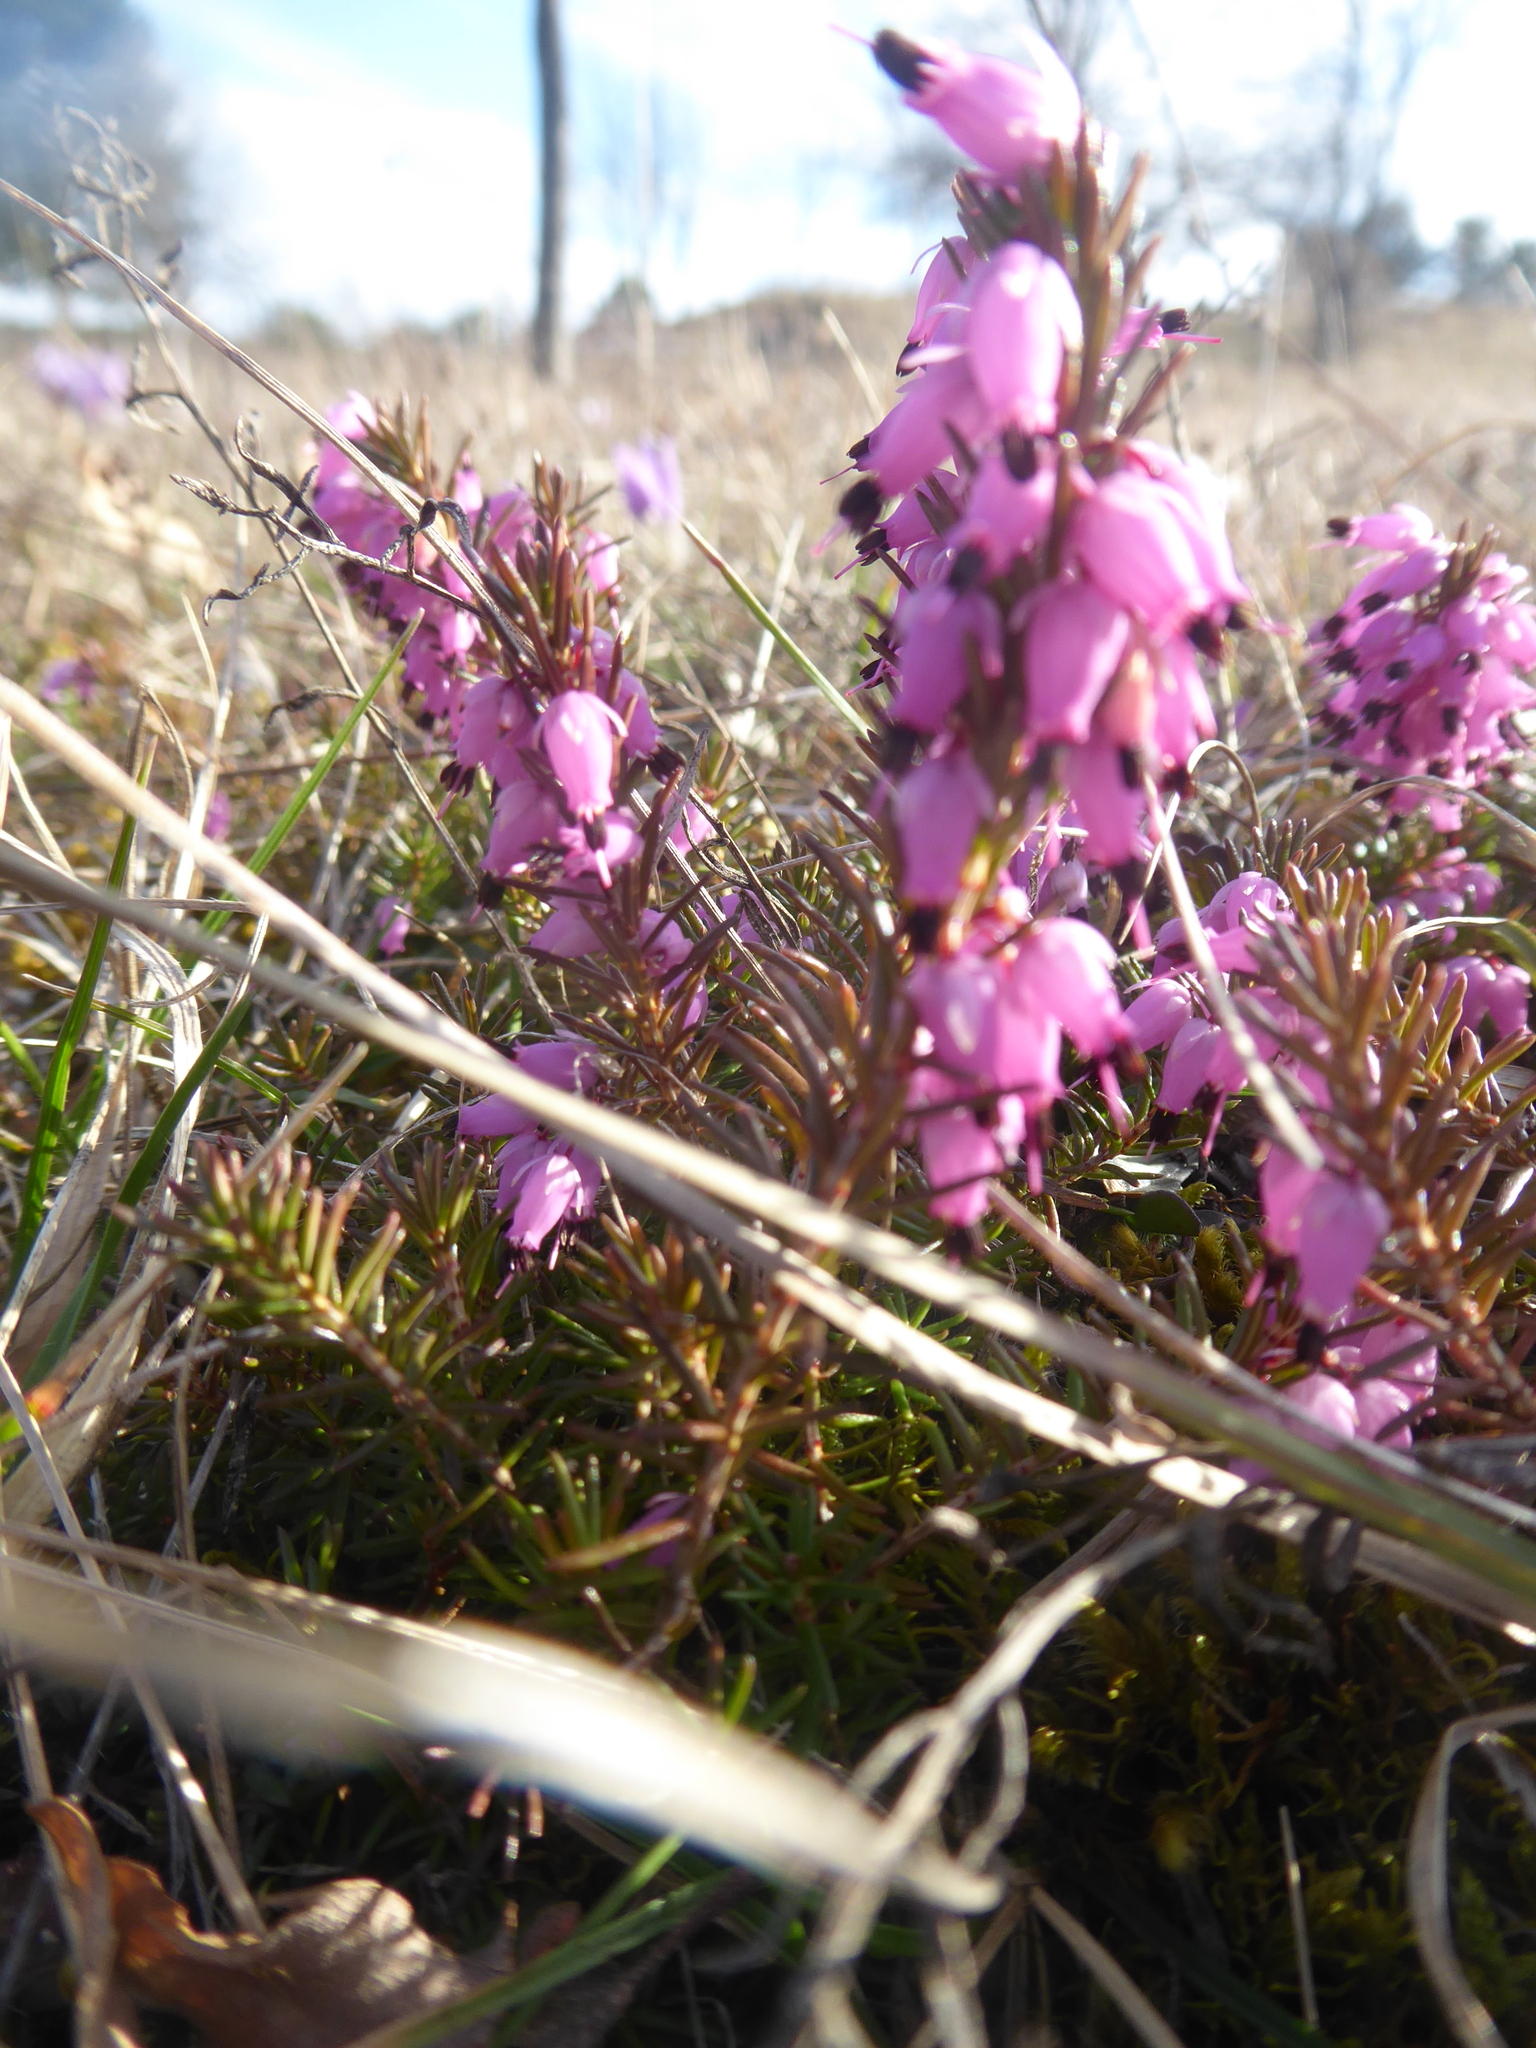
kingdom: Plantae
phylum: Tracheophyta
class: Magnoliopsida
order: Ericales
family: Ericaceae
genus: Erica
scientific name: Erica carnea
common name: Winter heath
